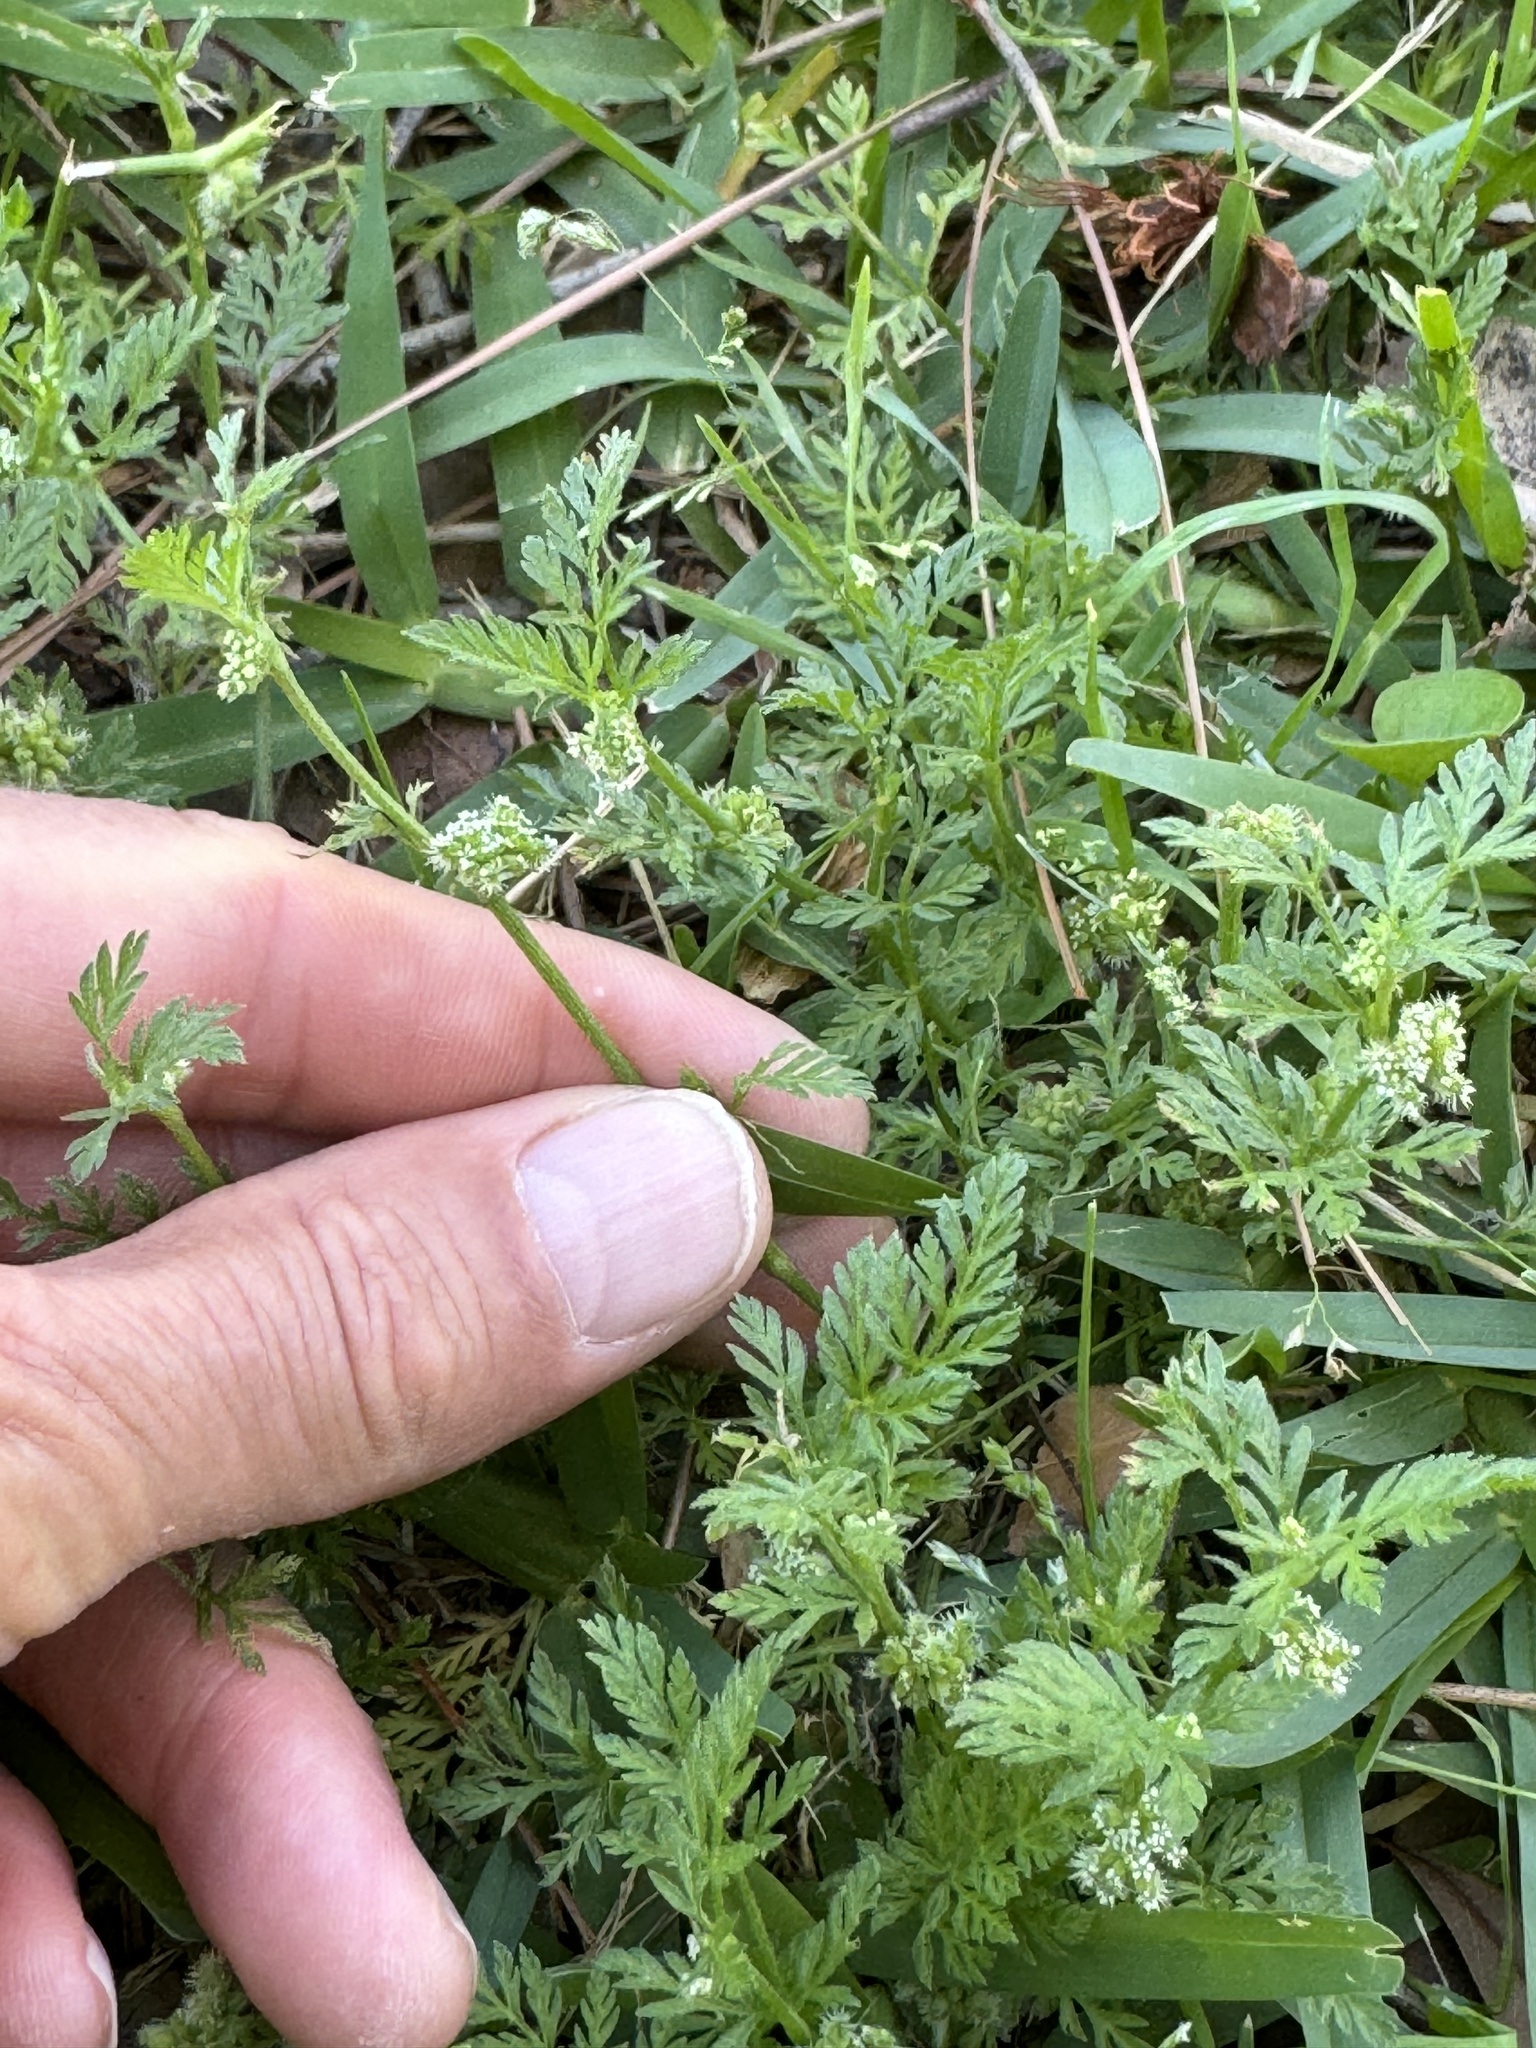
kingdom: Plantae
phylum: Tracheophyta
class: Magnoliopsida
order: Apiales
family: Apiaceae
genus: Torilis
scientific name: Torilis nodosa
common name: Knotted hedge-parsley
